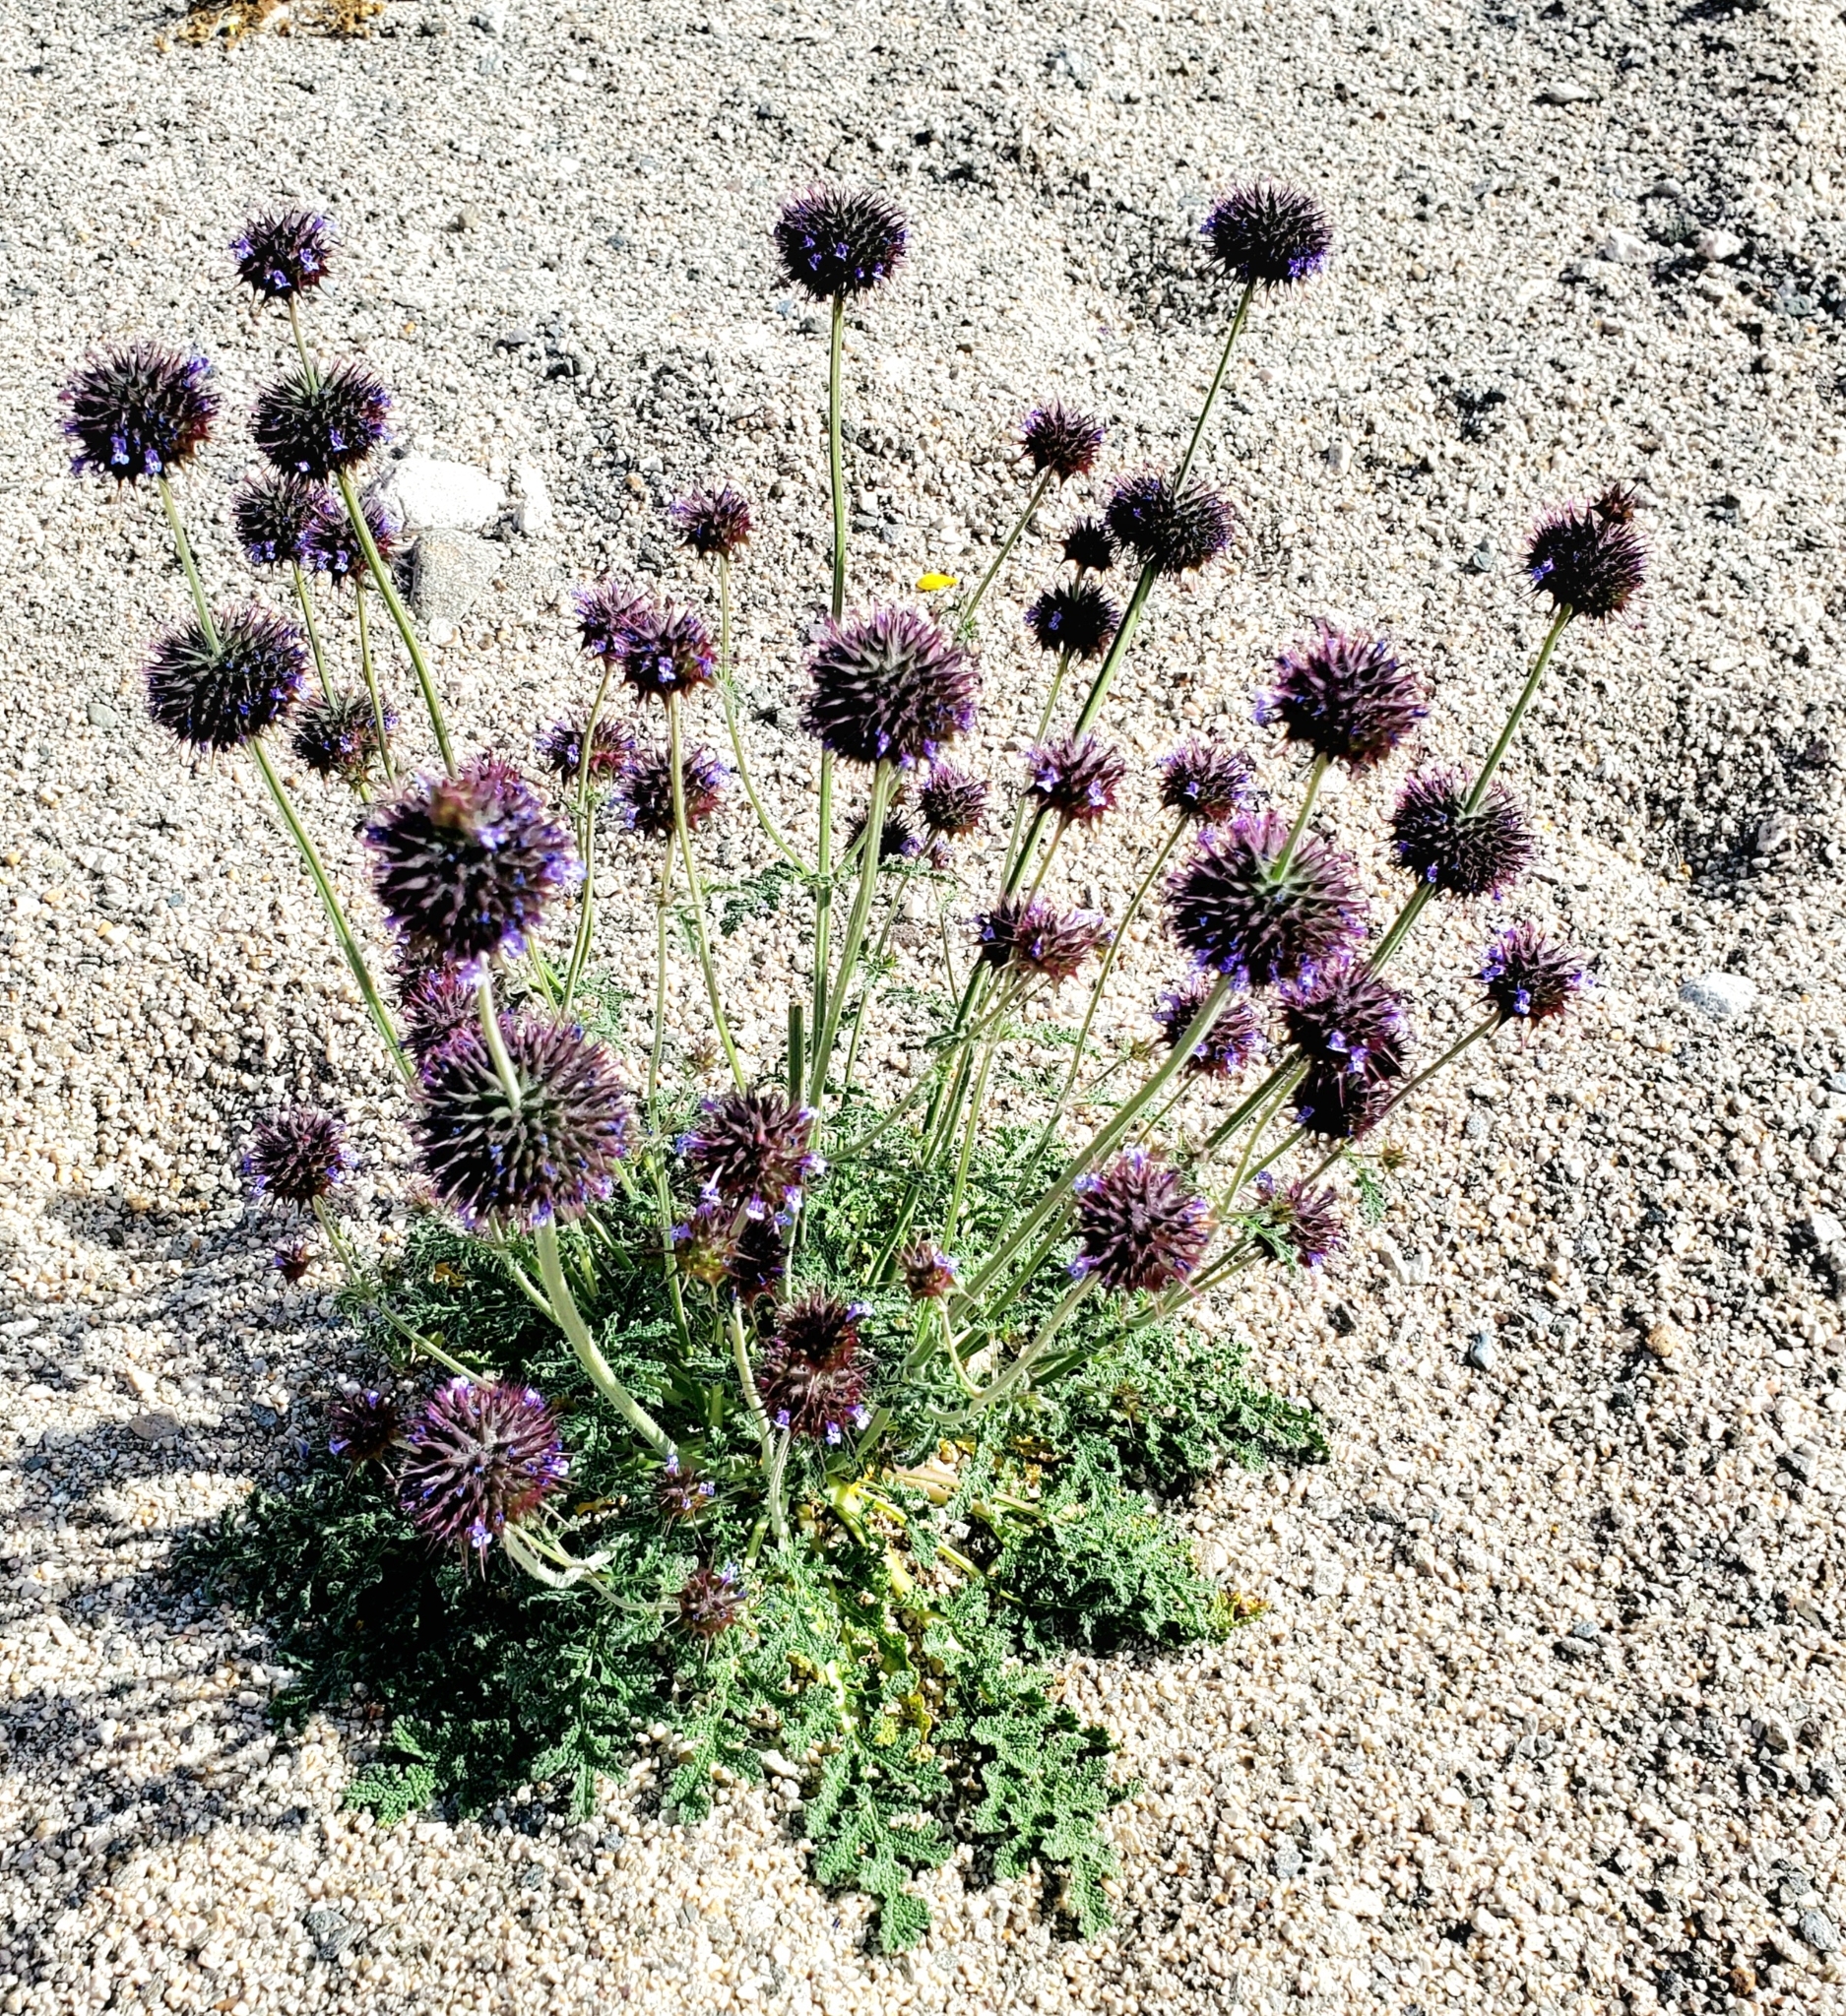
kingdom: Plantae
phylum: Tracheophyta
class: Magnoliopsida
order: Lamiales
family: Lamiaceae
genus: Salvia
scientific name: Salvia columbariae
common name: Chia
